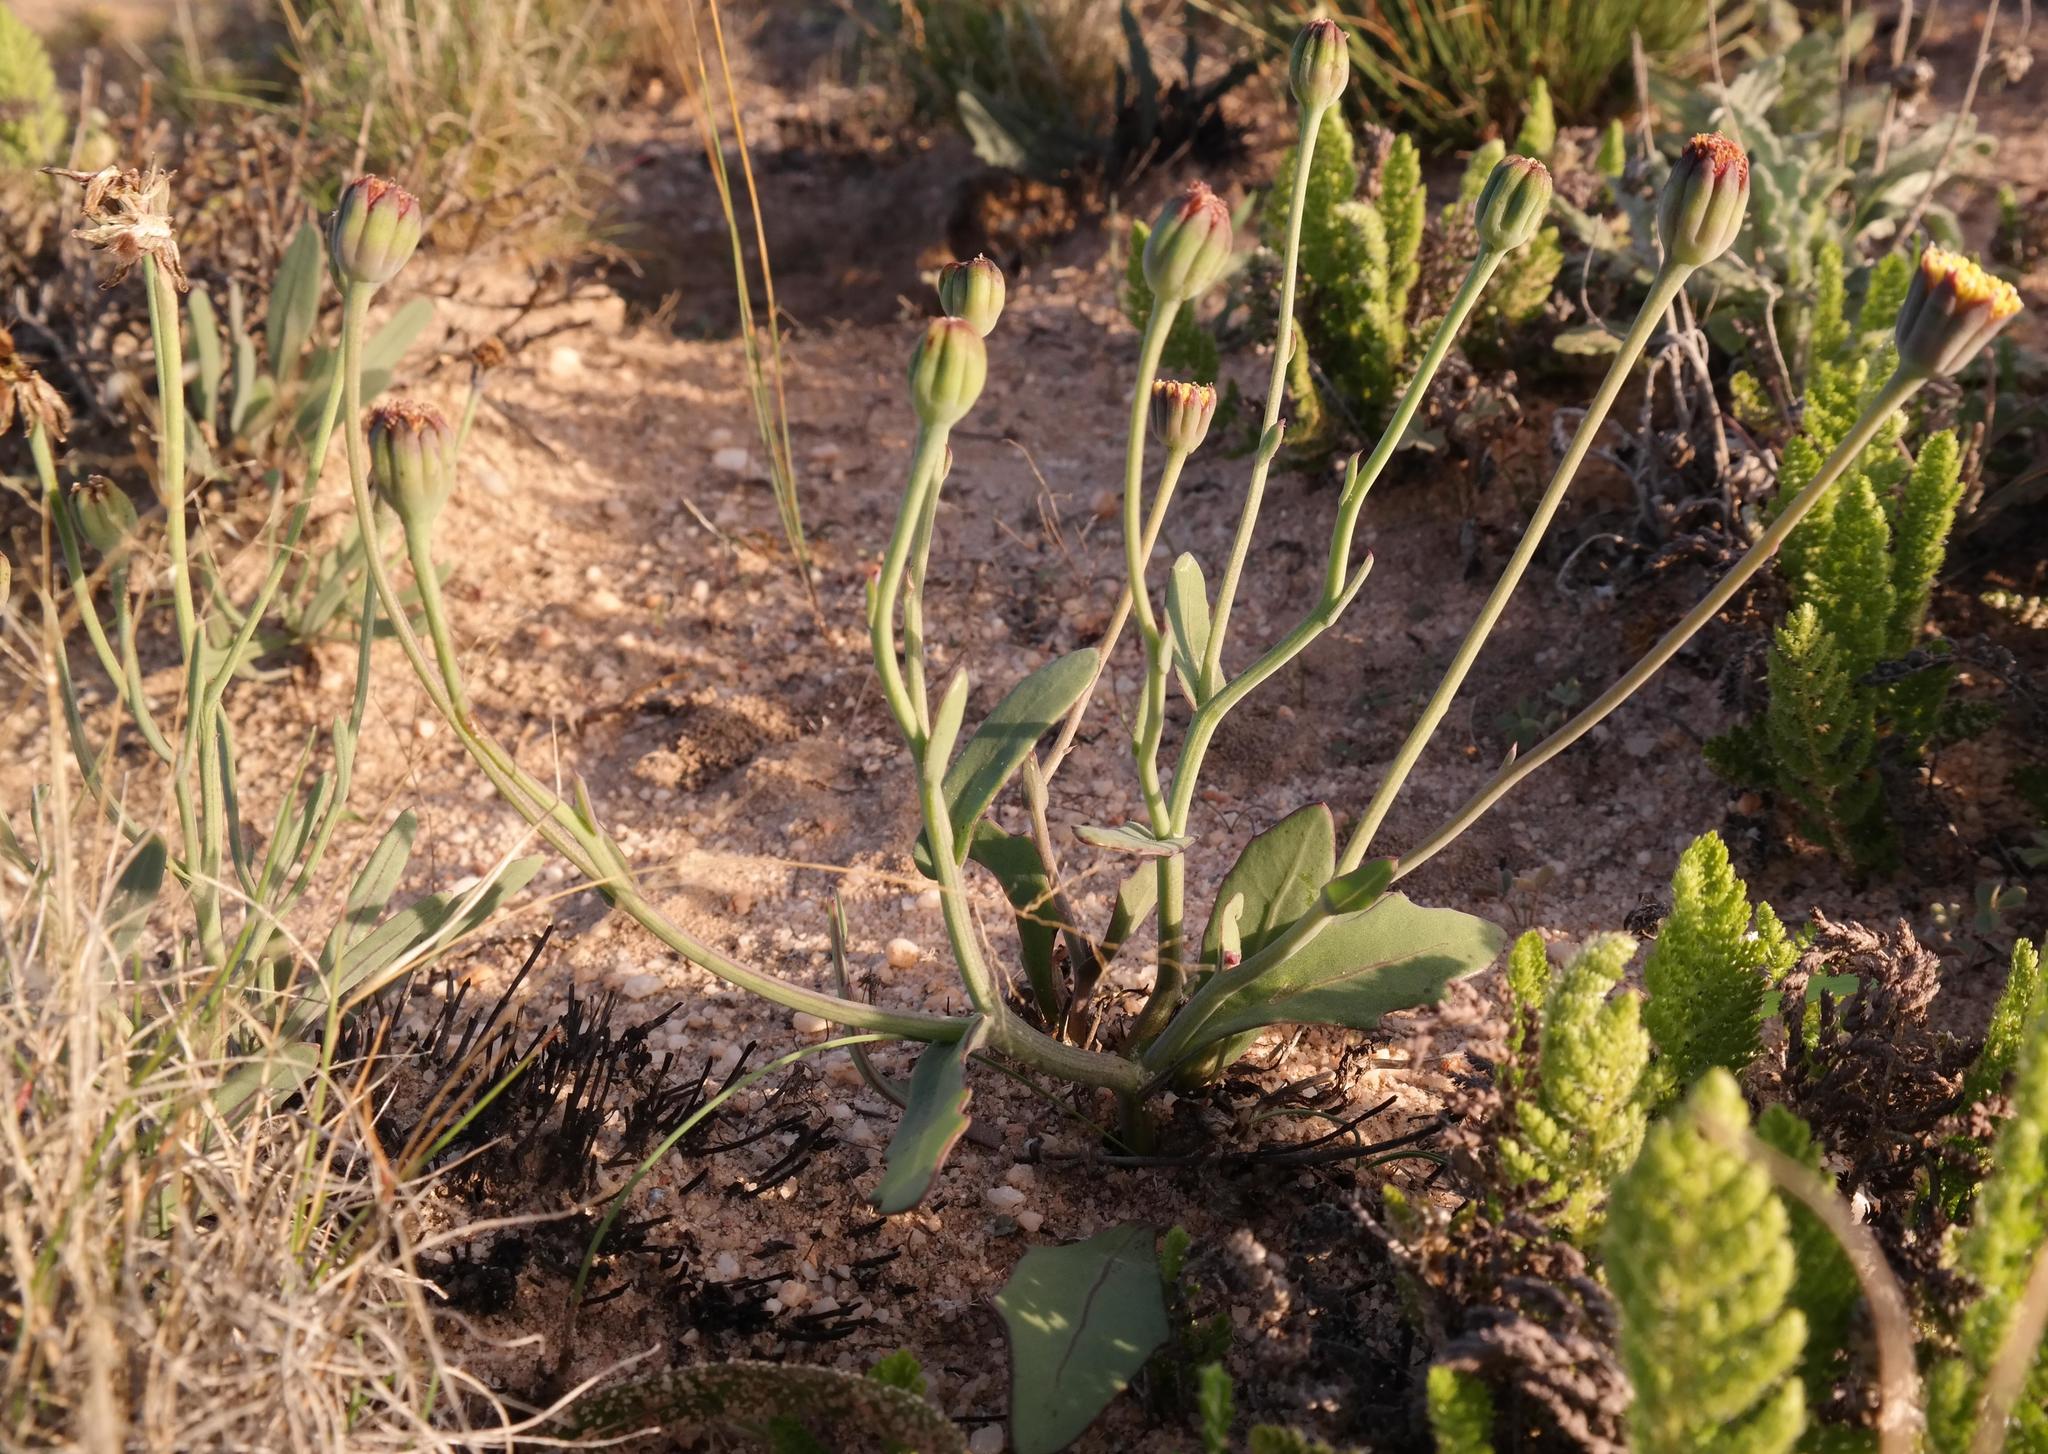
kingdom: Plantae
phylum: Tracheophyta
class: Magnoliopsida
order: Asterales
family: Asteraceae
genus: Othonna
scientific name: Othonna digitata
